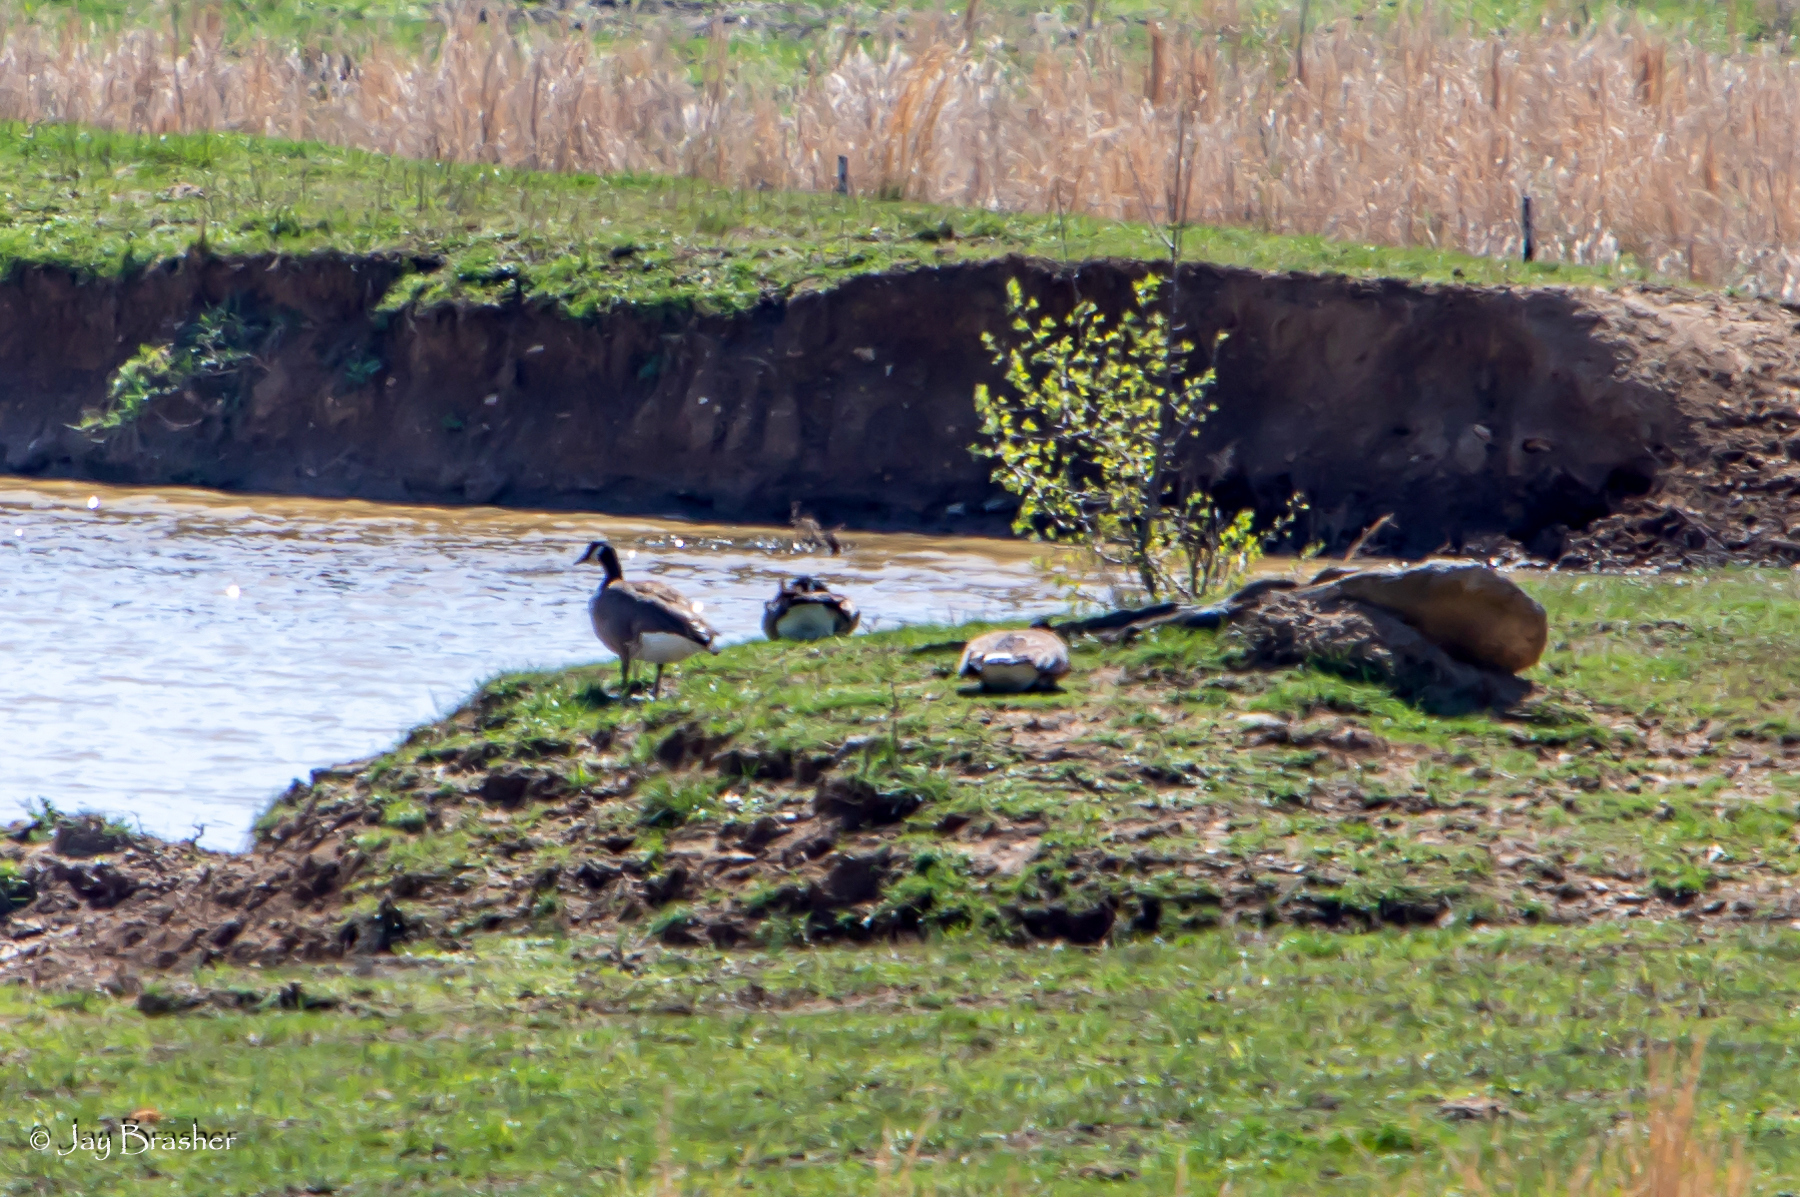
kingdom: Animalia
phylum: Chordata
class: Aves
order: Anseriformes
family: Anatidae
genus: Branta
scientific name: Branta canadensis
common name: Canada goose
